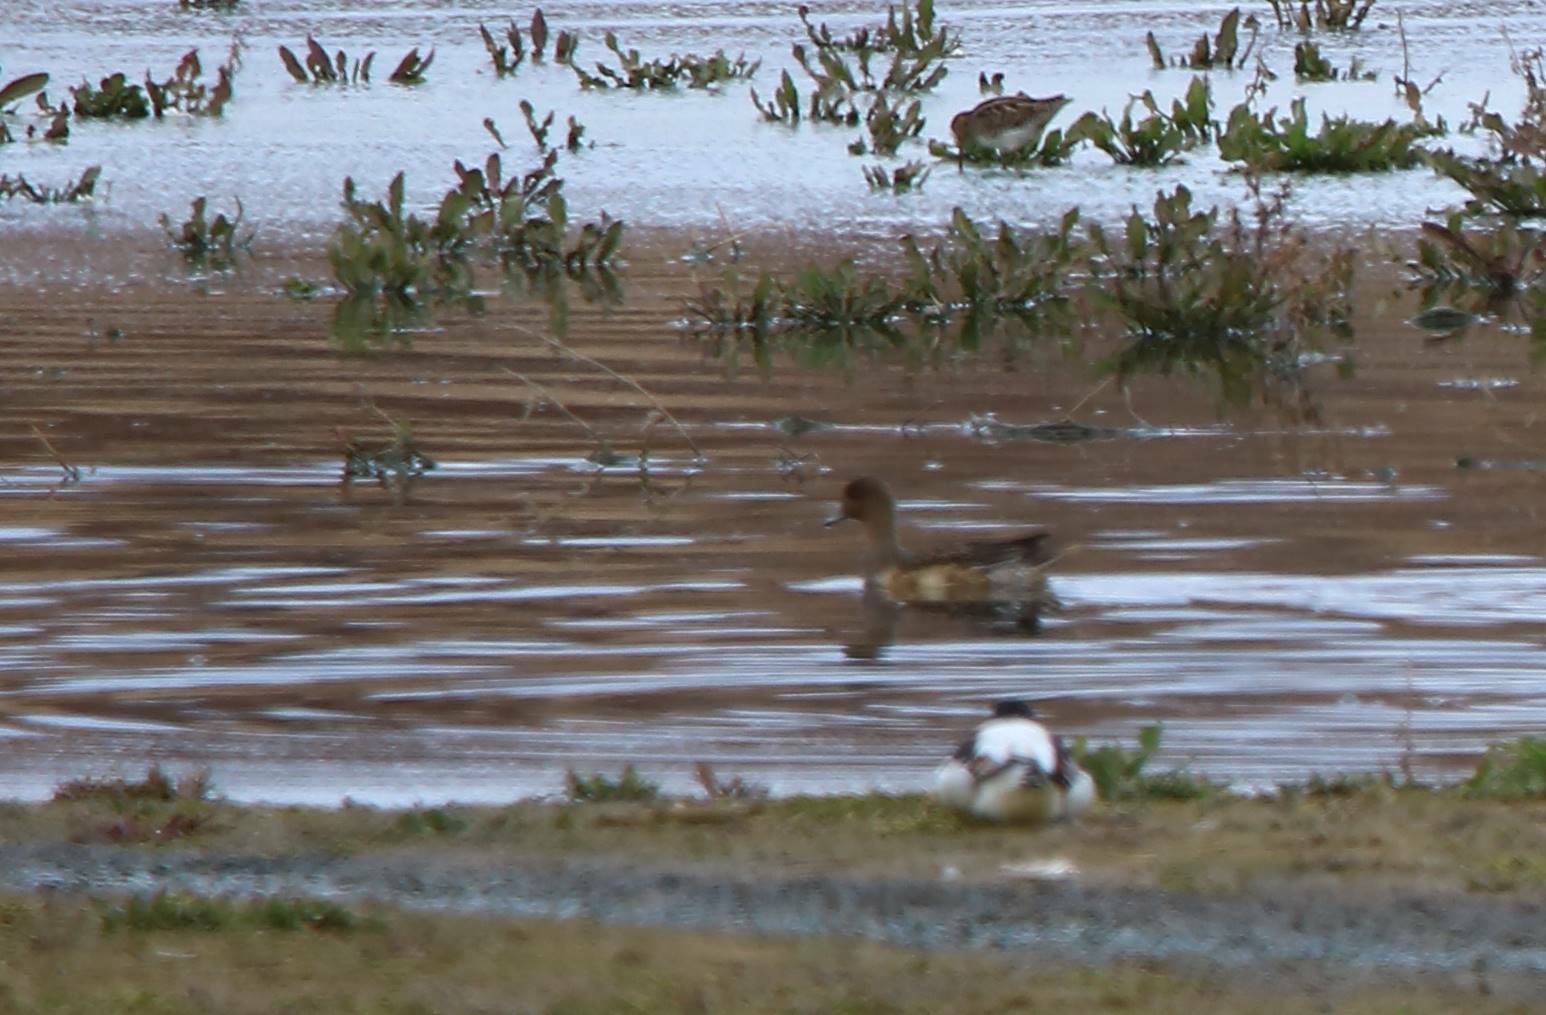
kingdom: Animalia
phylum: Chordata
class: Aves
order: Anseriformes
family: Anatidae
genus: Mareca
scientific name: Mareca penelope
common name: Eurasian wigeon
